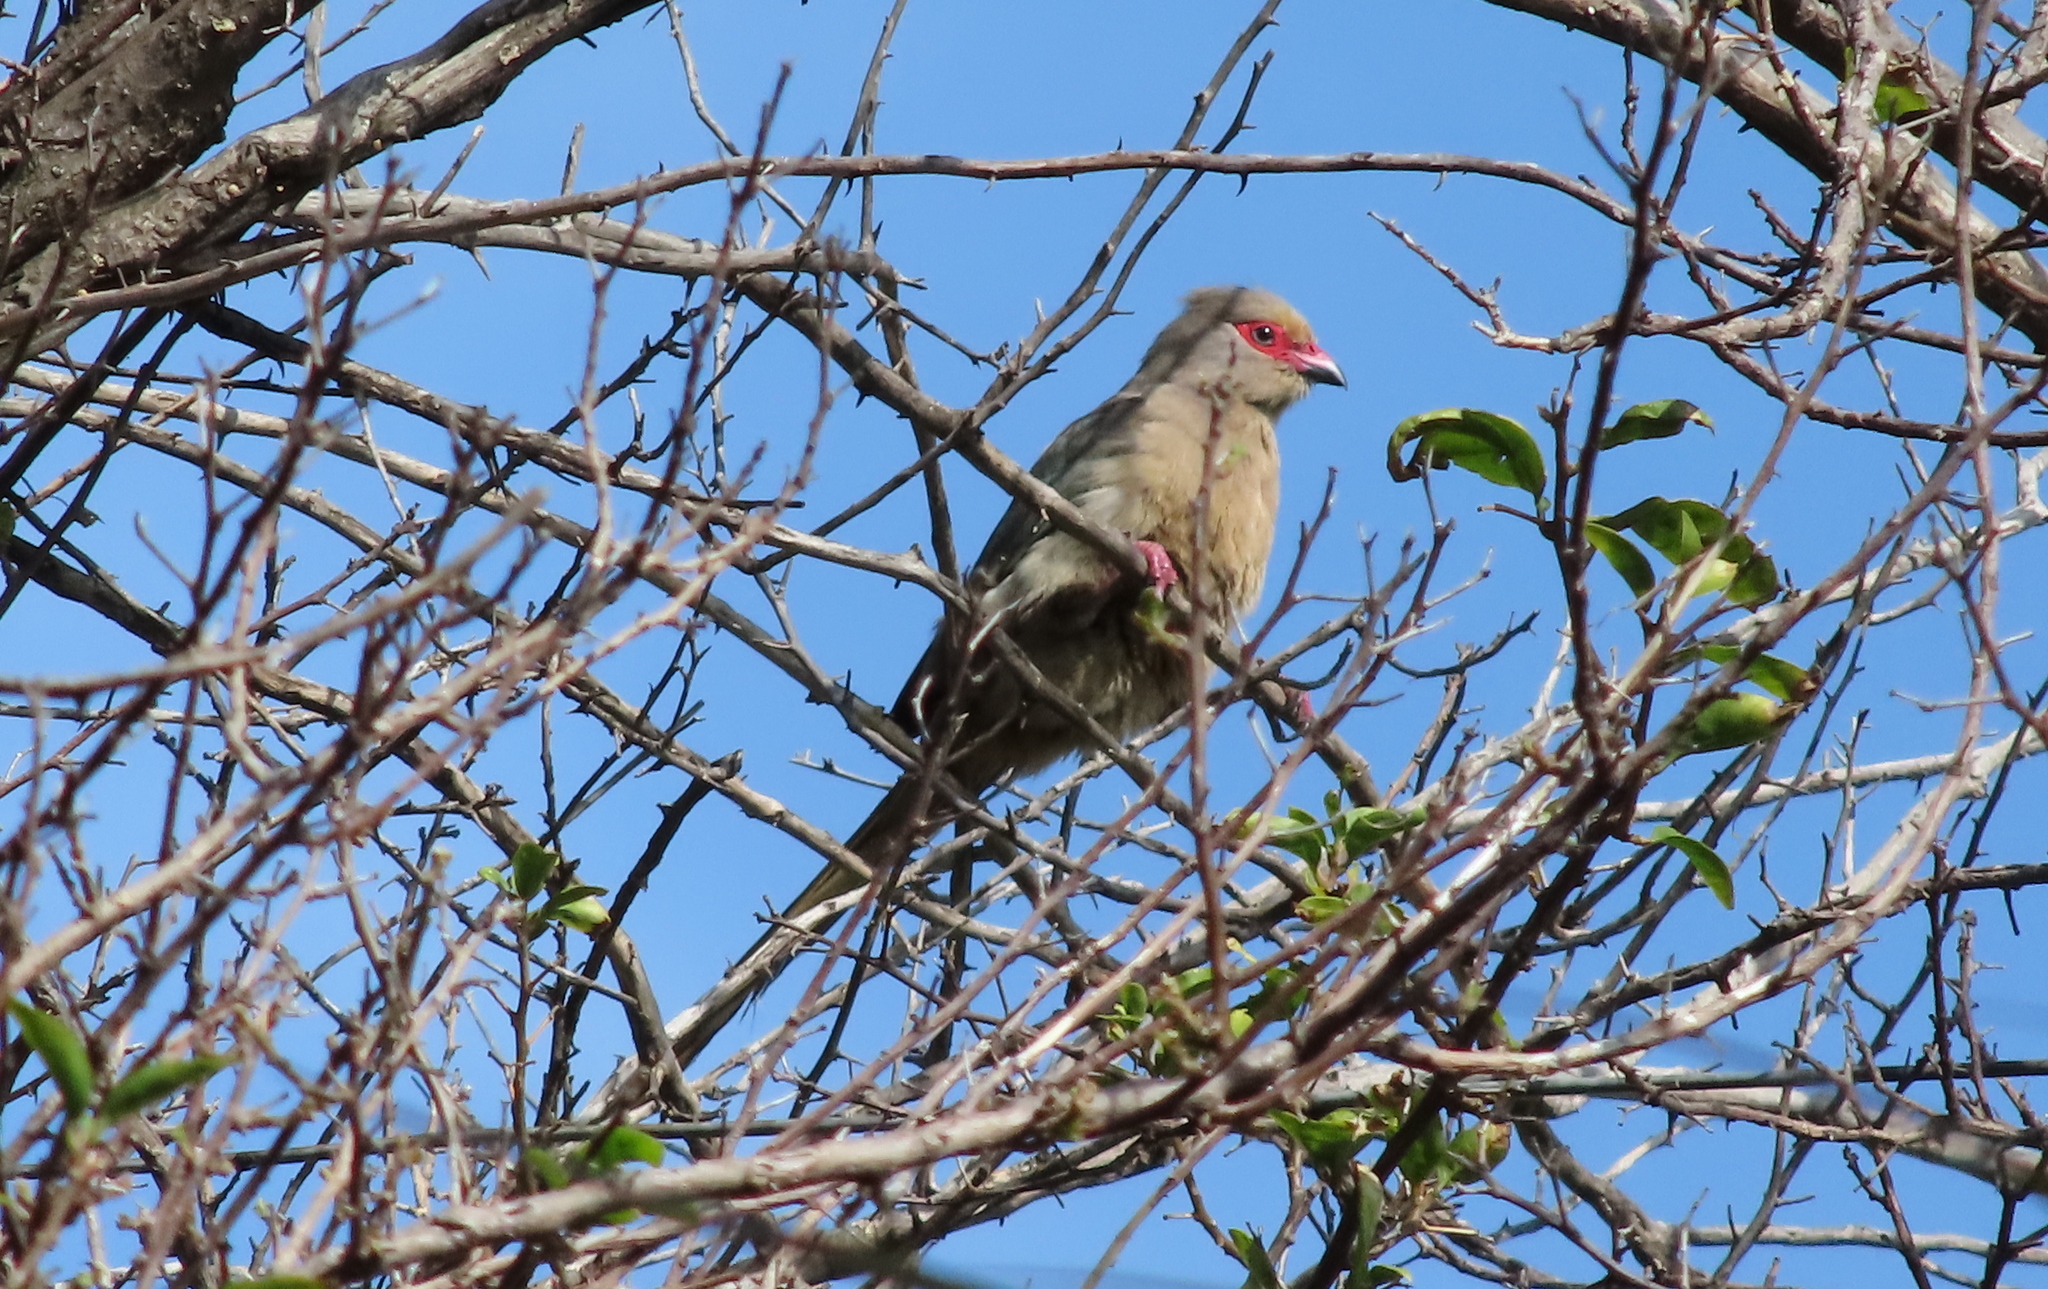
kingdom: Animalia
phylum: Chordata
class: Aves
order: Coliiformes
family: Coliidae
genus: Urocolius
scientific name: Urocolius indicus
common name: Red-faced mousebird
